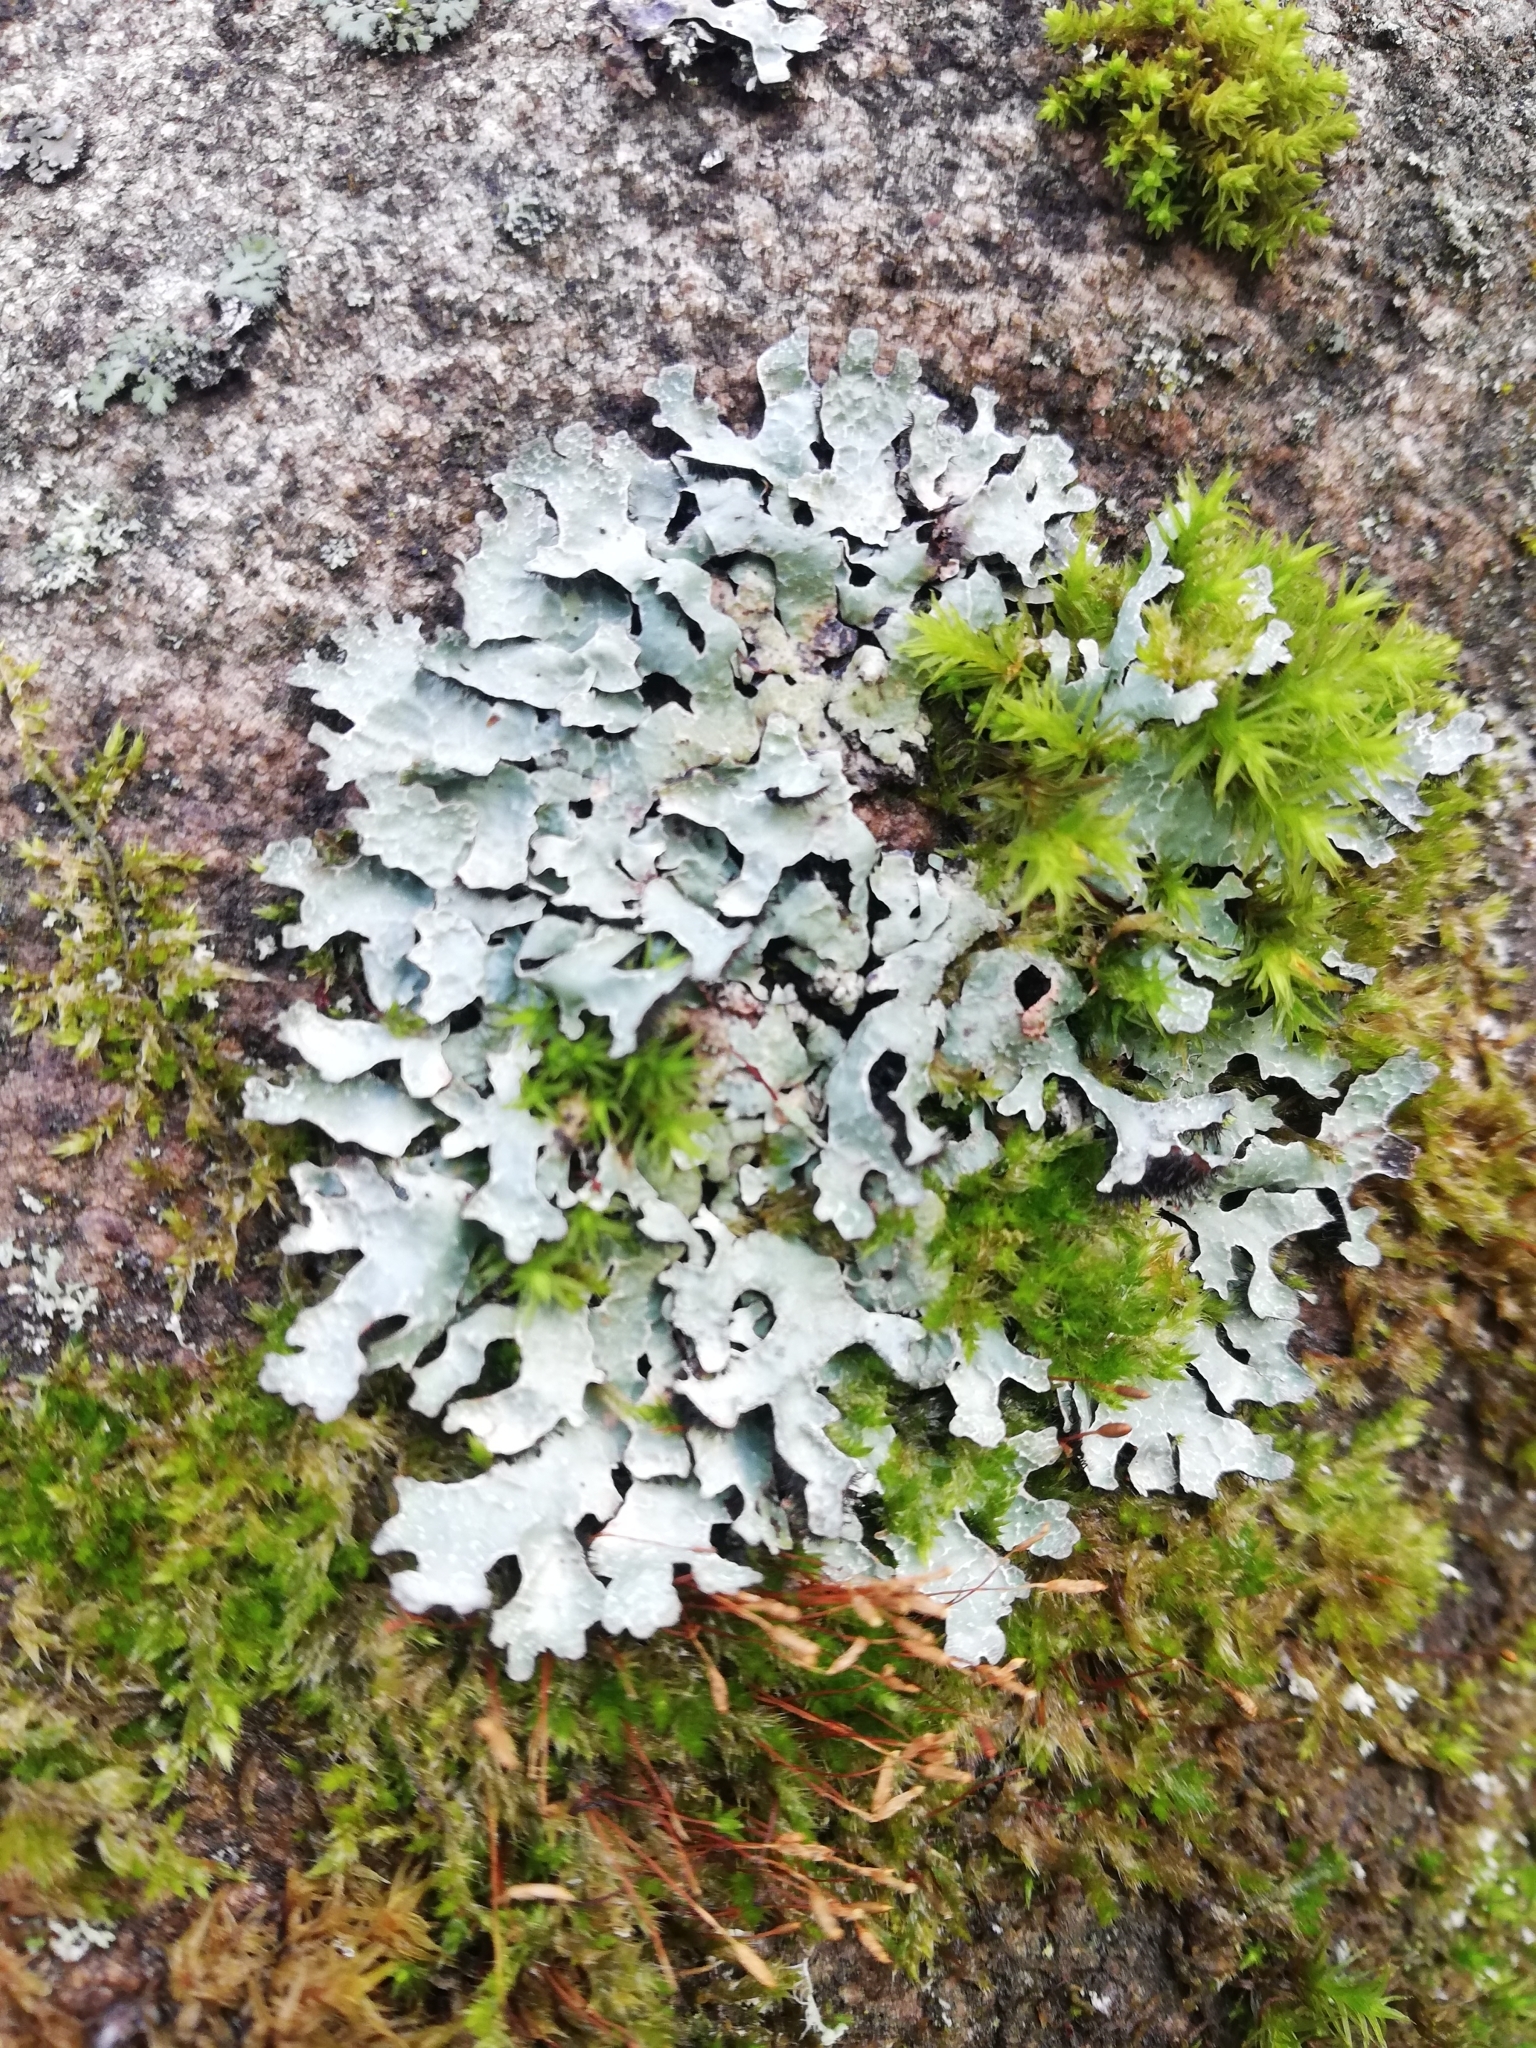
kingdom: Fungi
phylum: Ascomycota
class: Lecanoromycetes
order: Lecanorales
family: Parmeliaceae
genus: Parmelia
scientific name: Parmelia sulcata
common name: Netted shield lichen
